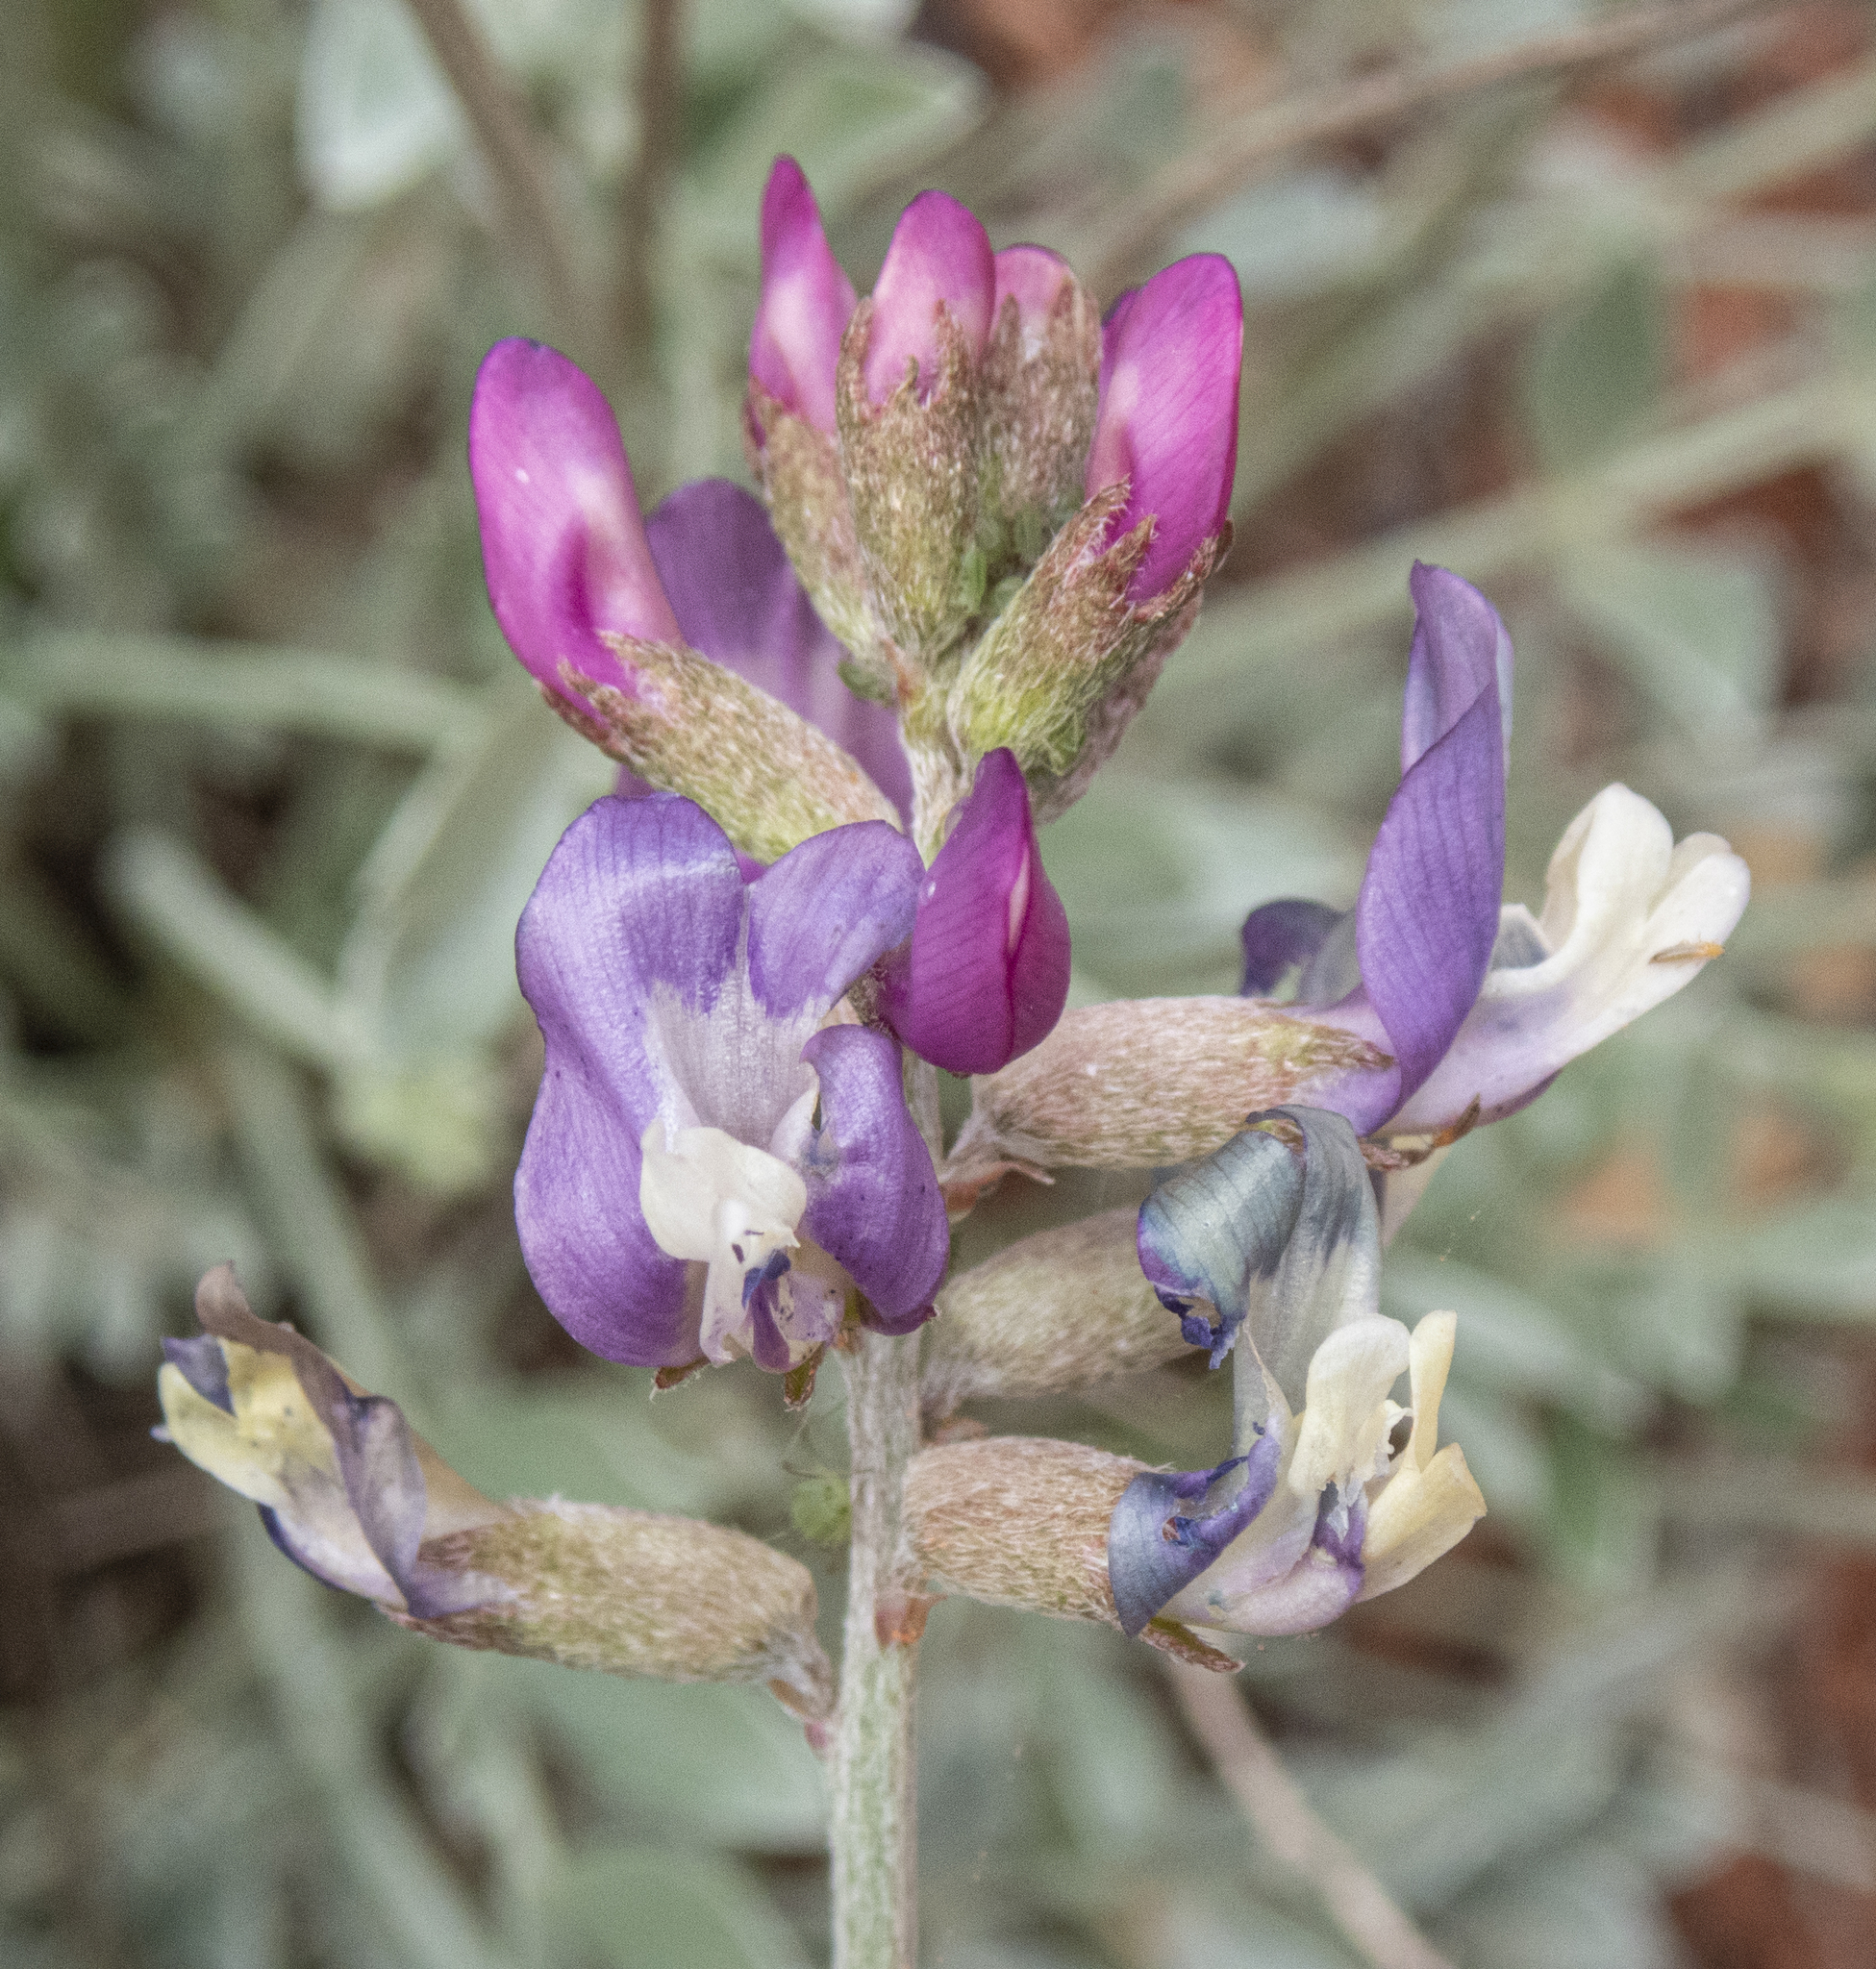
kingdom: Plantae
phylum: Tracheophyta
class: Magnoliopsida
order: Fabales
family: Fabaceae
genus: Astragalus
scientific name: Astragalus calycosus
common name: King's milkvetch
